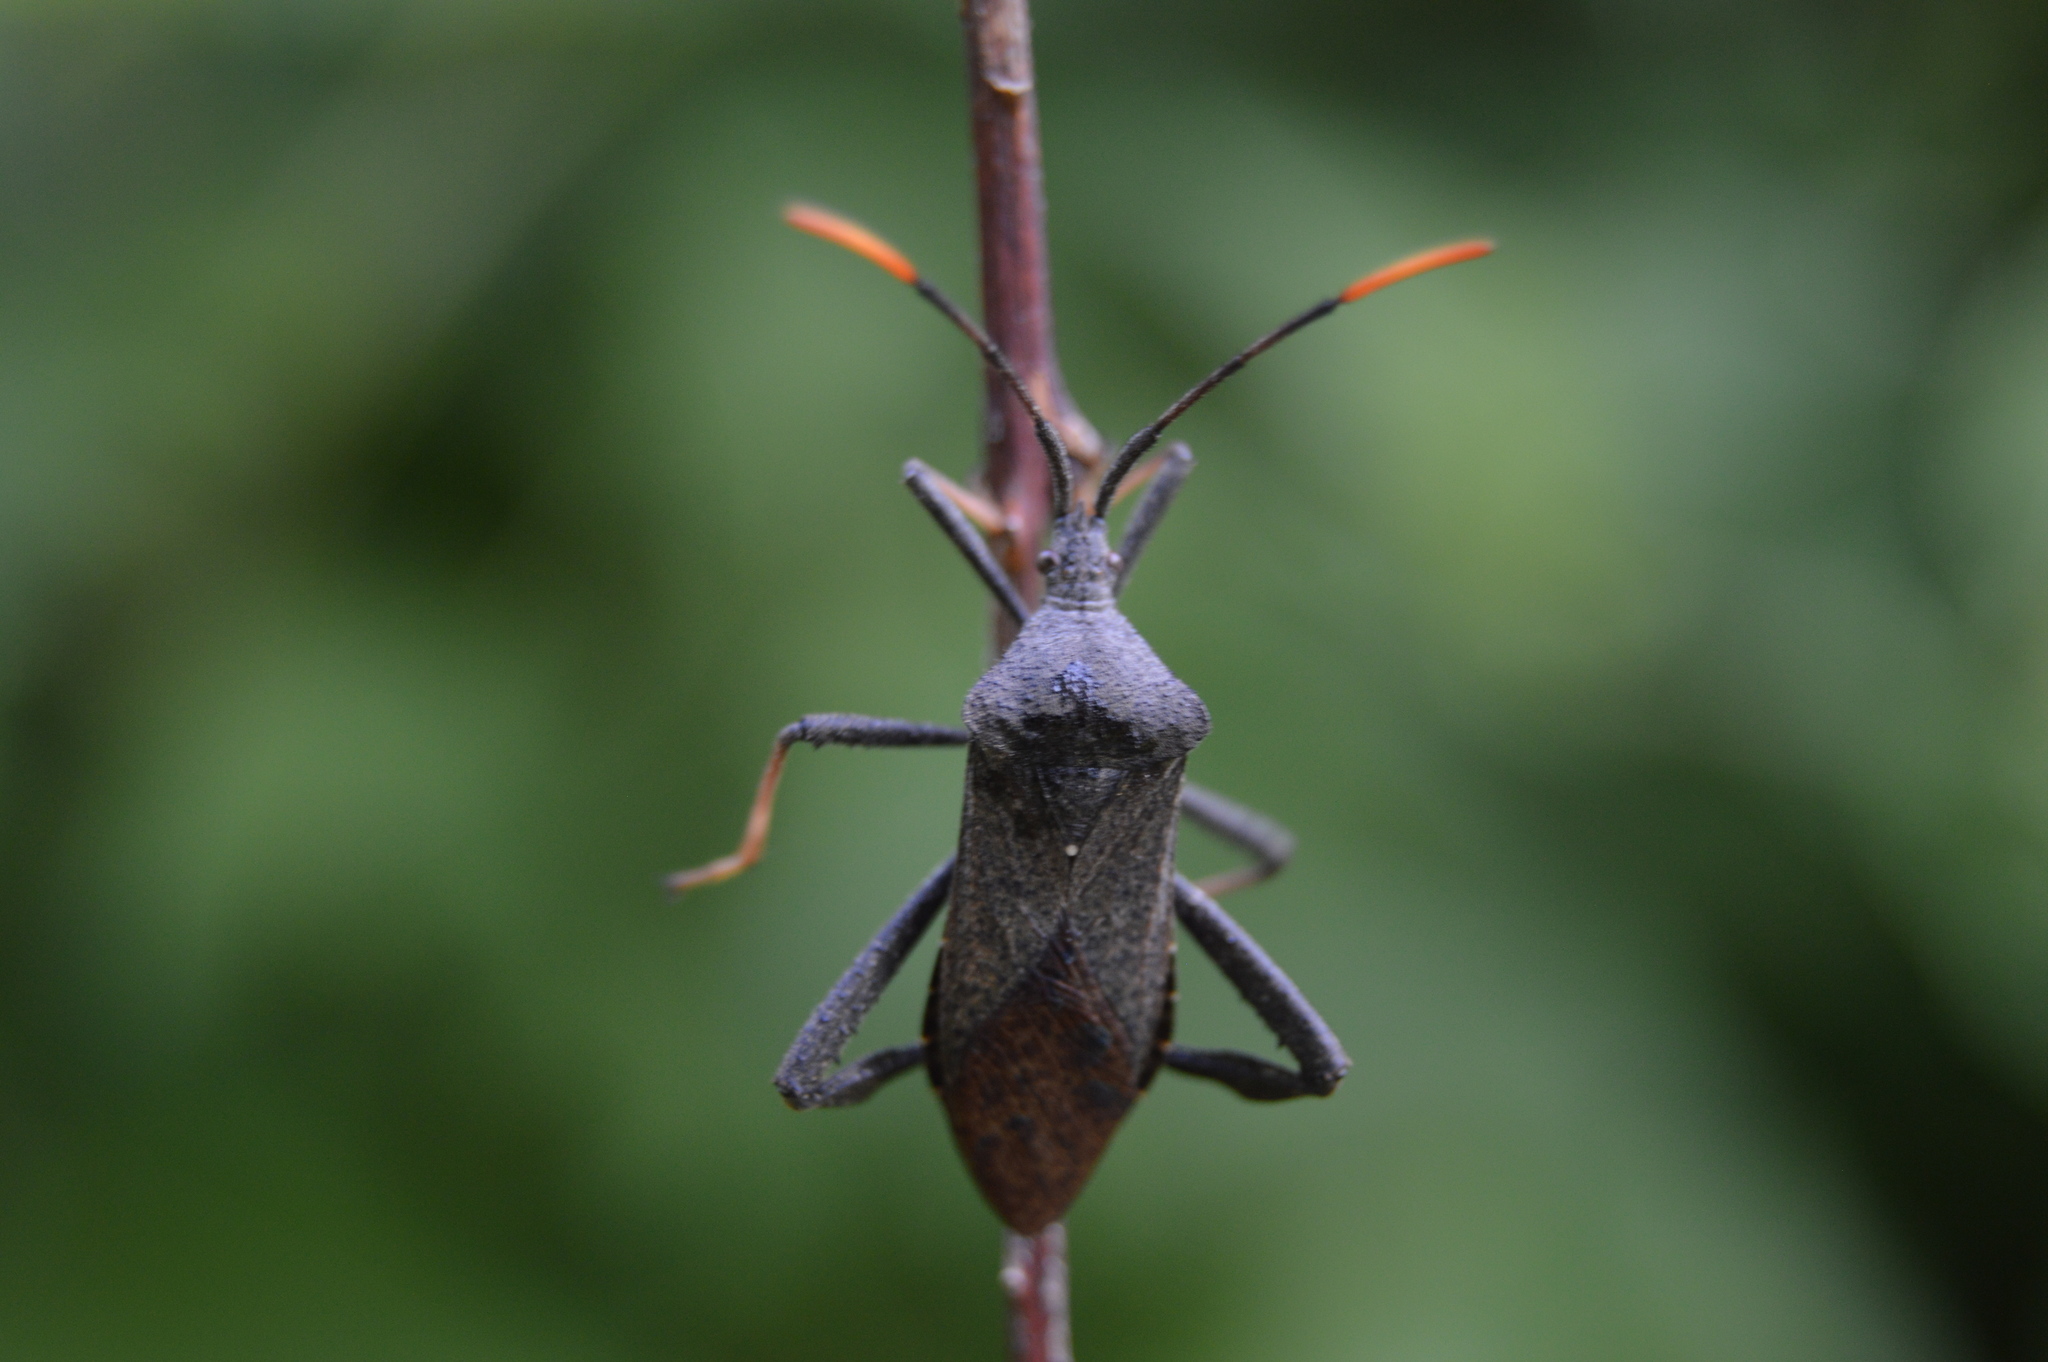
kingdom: Animalia
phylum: Arthropoda
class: Insecta
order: Hemiptera
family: Coreidae
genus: Acanthocephala
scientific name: Acanthocephala terminalis
